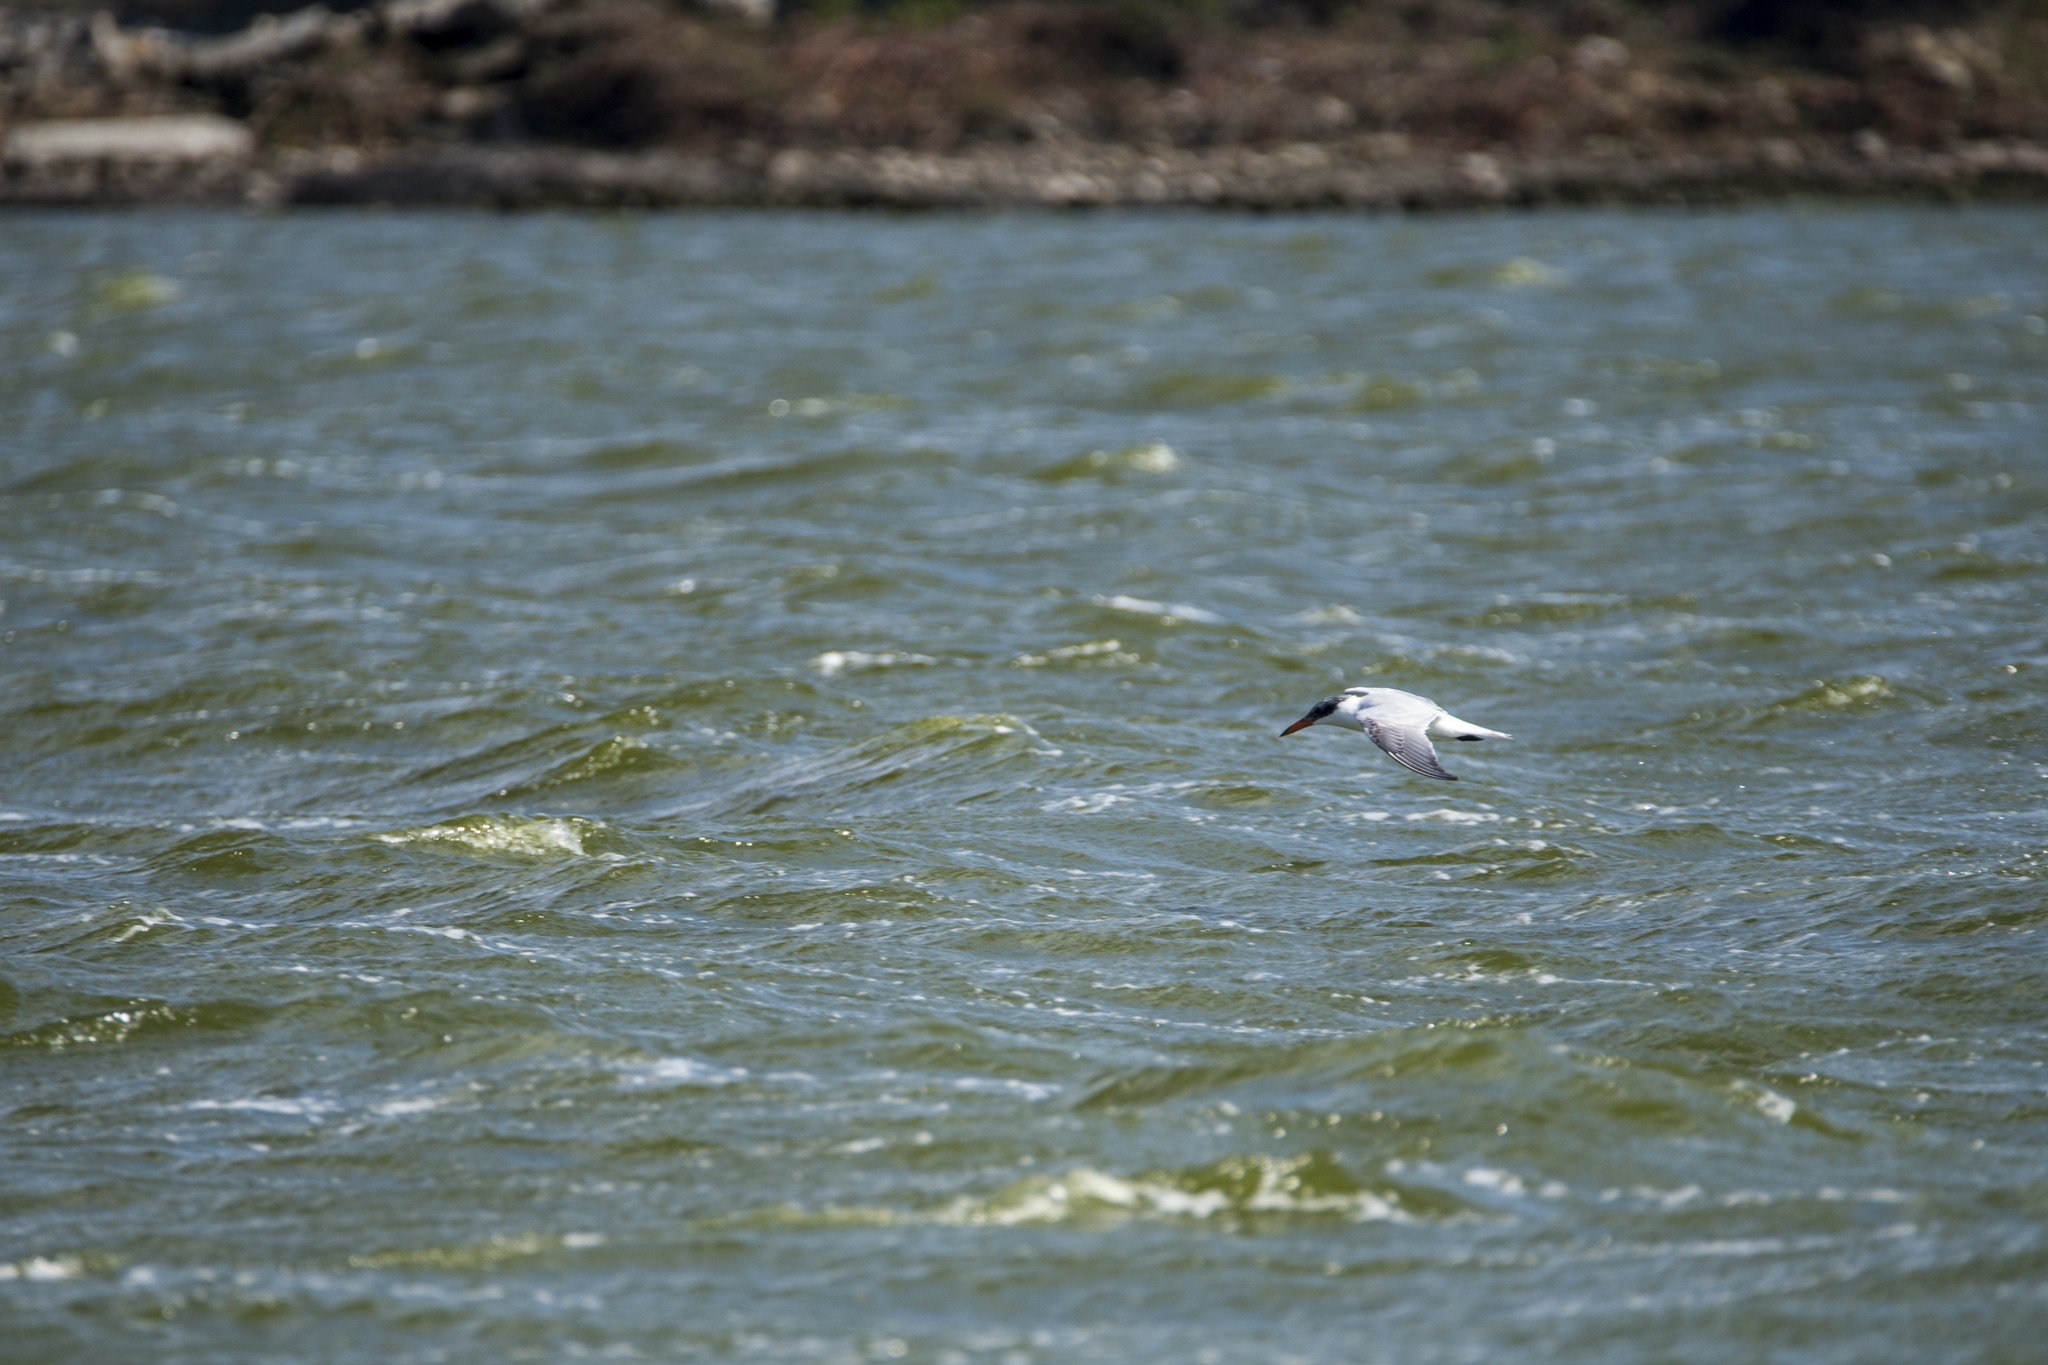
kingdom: Animalia
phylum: Chordata
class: Aves
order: Charadriiformes
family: Laridae
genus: Hydroprogne
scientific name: Hydroprogne caspia
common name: Caspian tern
